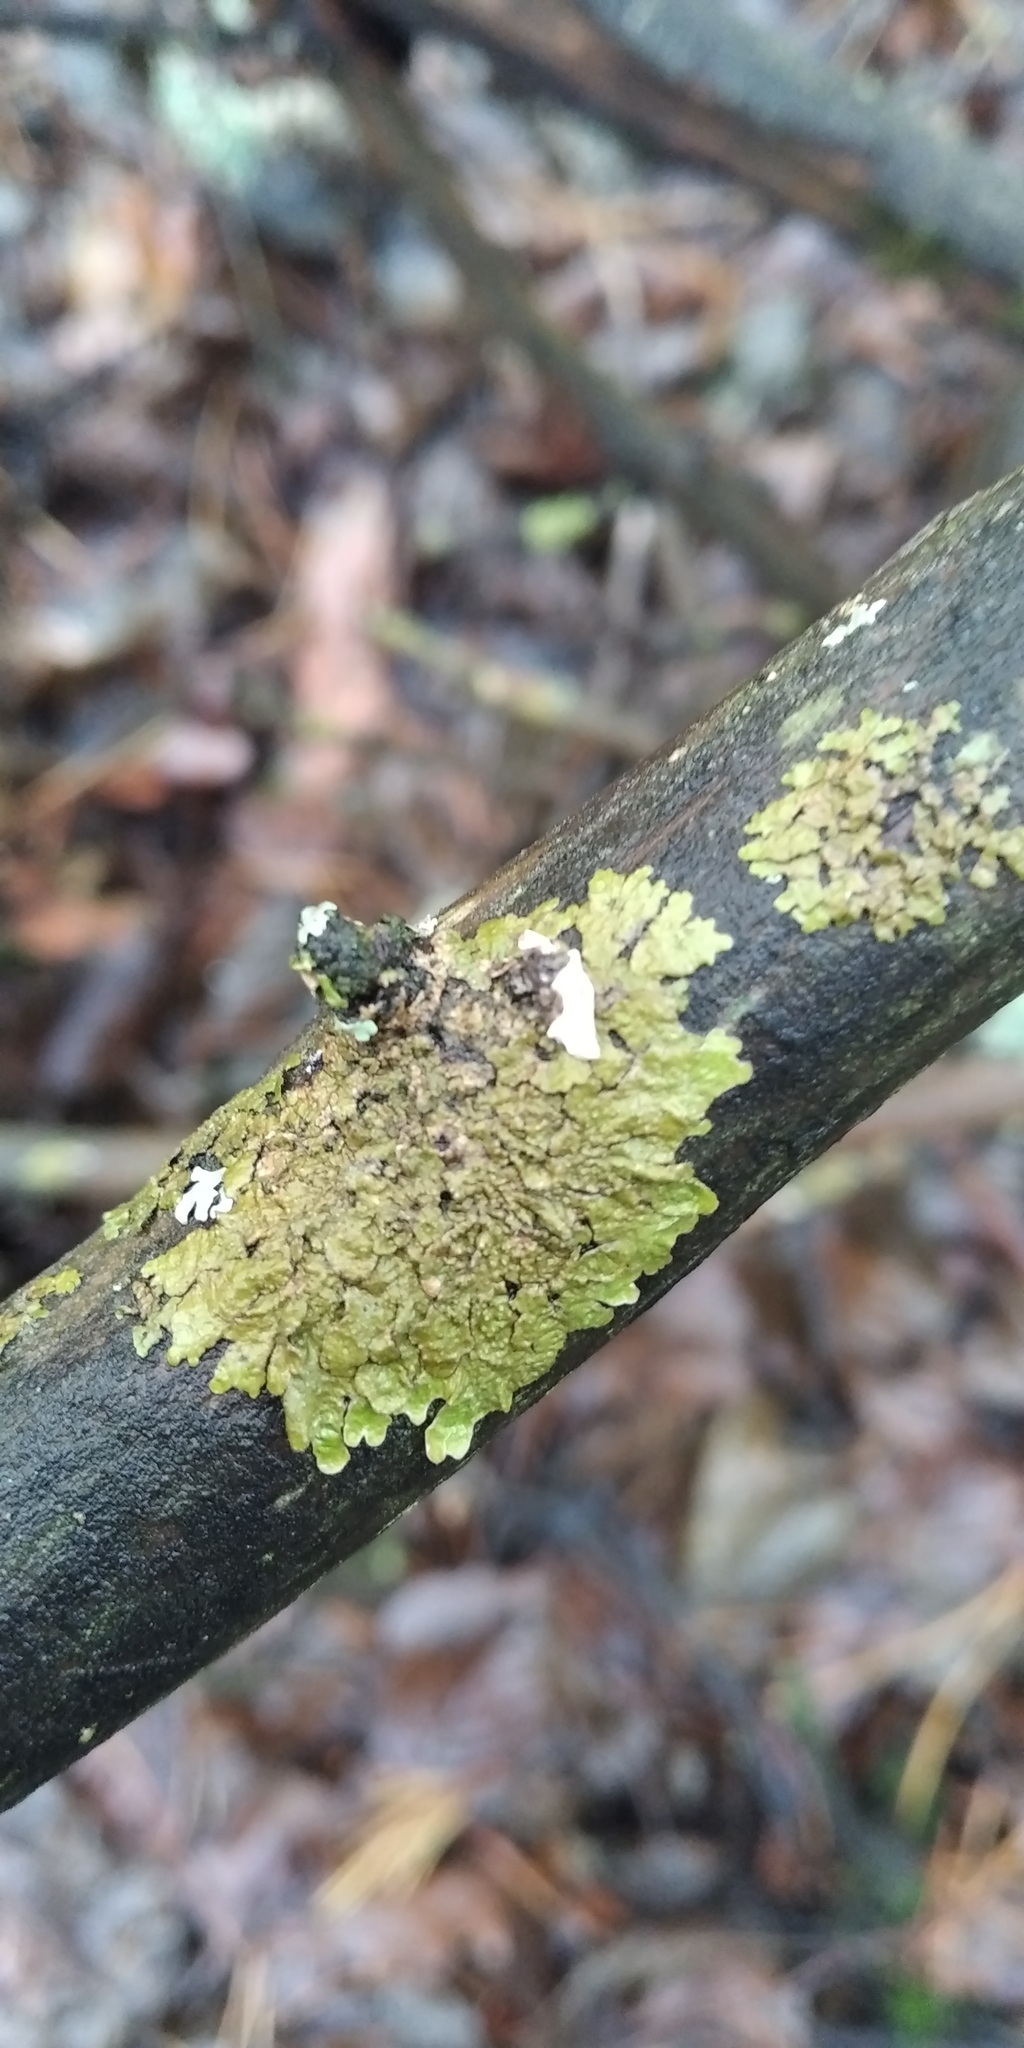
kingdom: Fungi
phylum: Ascomycota
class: Lecanoromycetes
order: Lecanorales
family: Parmeliaceae
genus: Melanelixia
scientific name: Melanelixia subaurifera
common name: Abraded camouflage lichen
